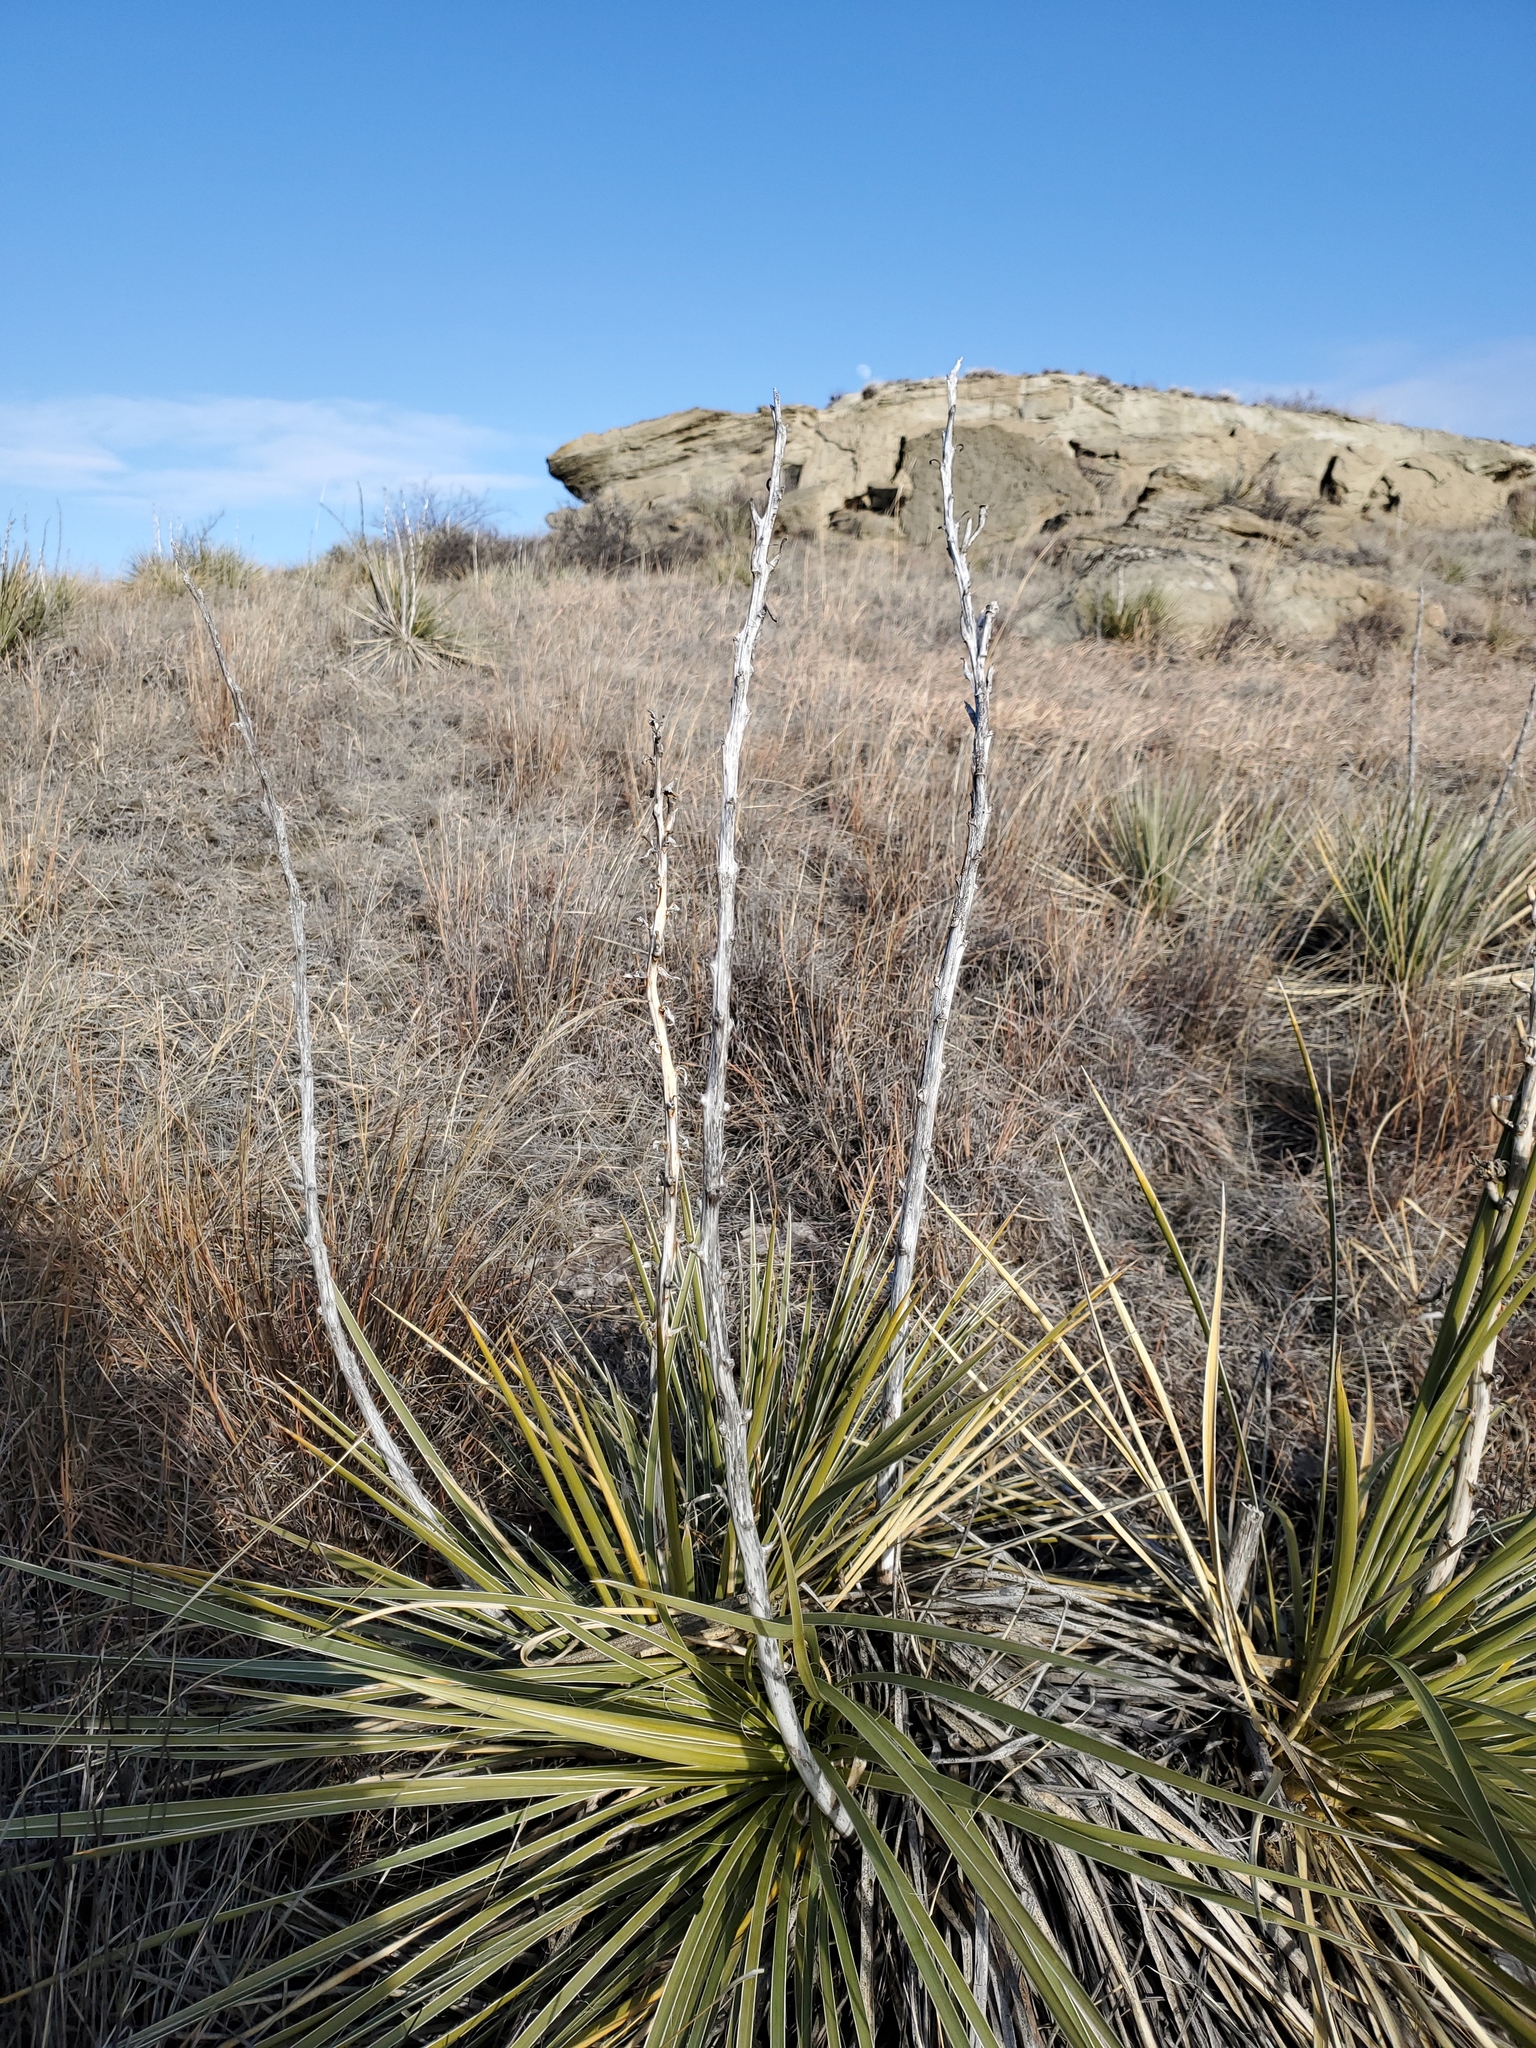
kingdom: Plantae
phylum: Tracheophyta
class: Liliopsida
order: Asparagales
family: Asparagaceae
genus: Yucca
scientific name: Yucca glauca
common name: Great plains yucca
